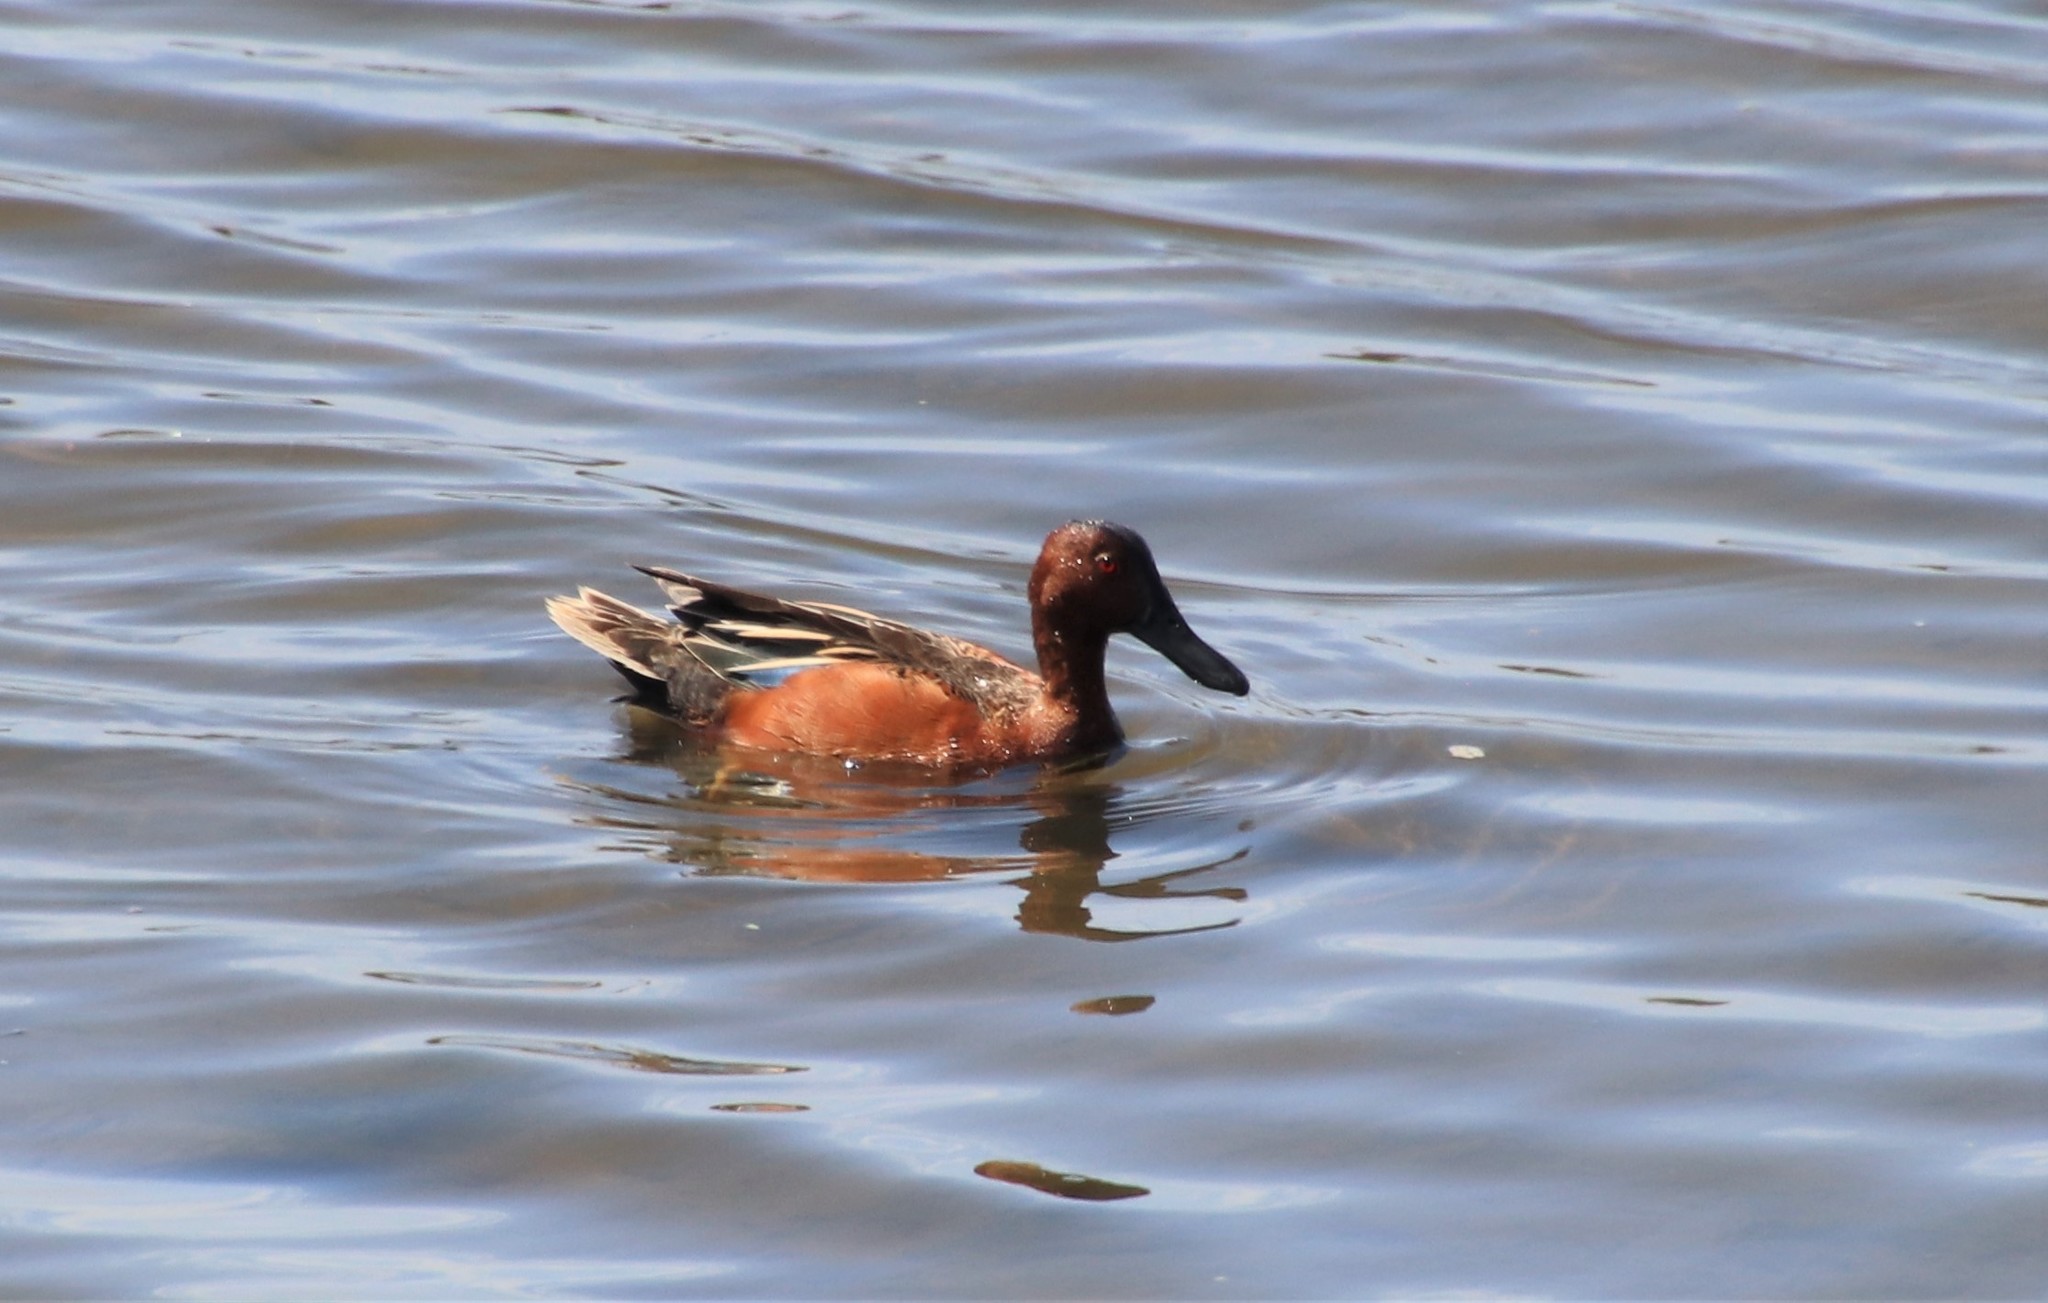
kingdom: Animalia
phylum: Chordata
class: Aves
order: Anseriformes
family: Anatidae
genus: Spatula
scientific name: Spatula cyanoptera
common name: Cinnamon teal
